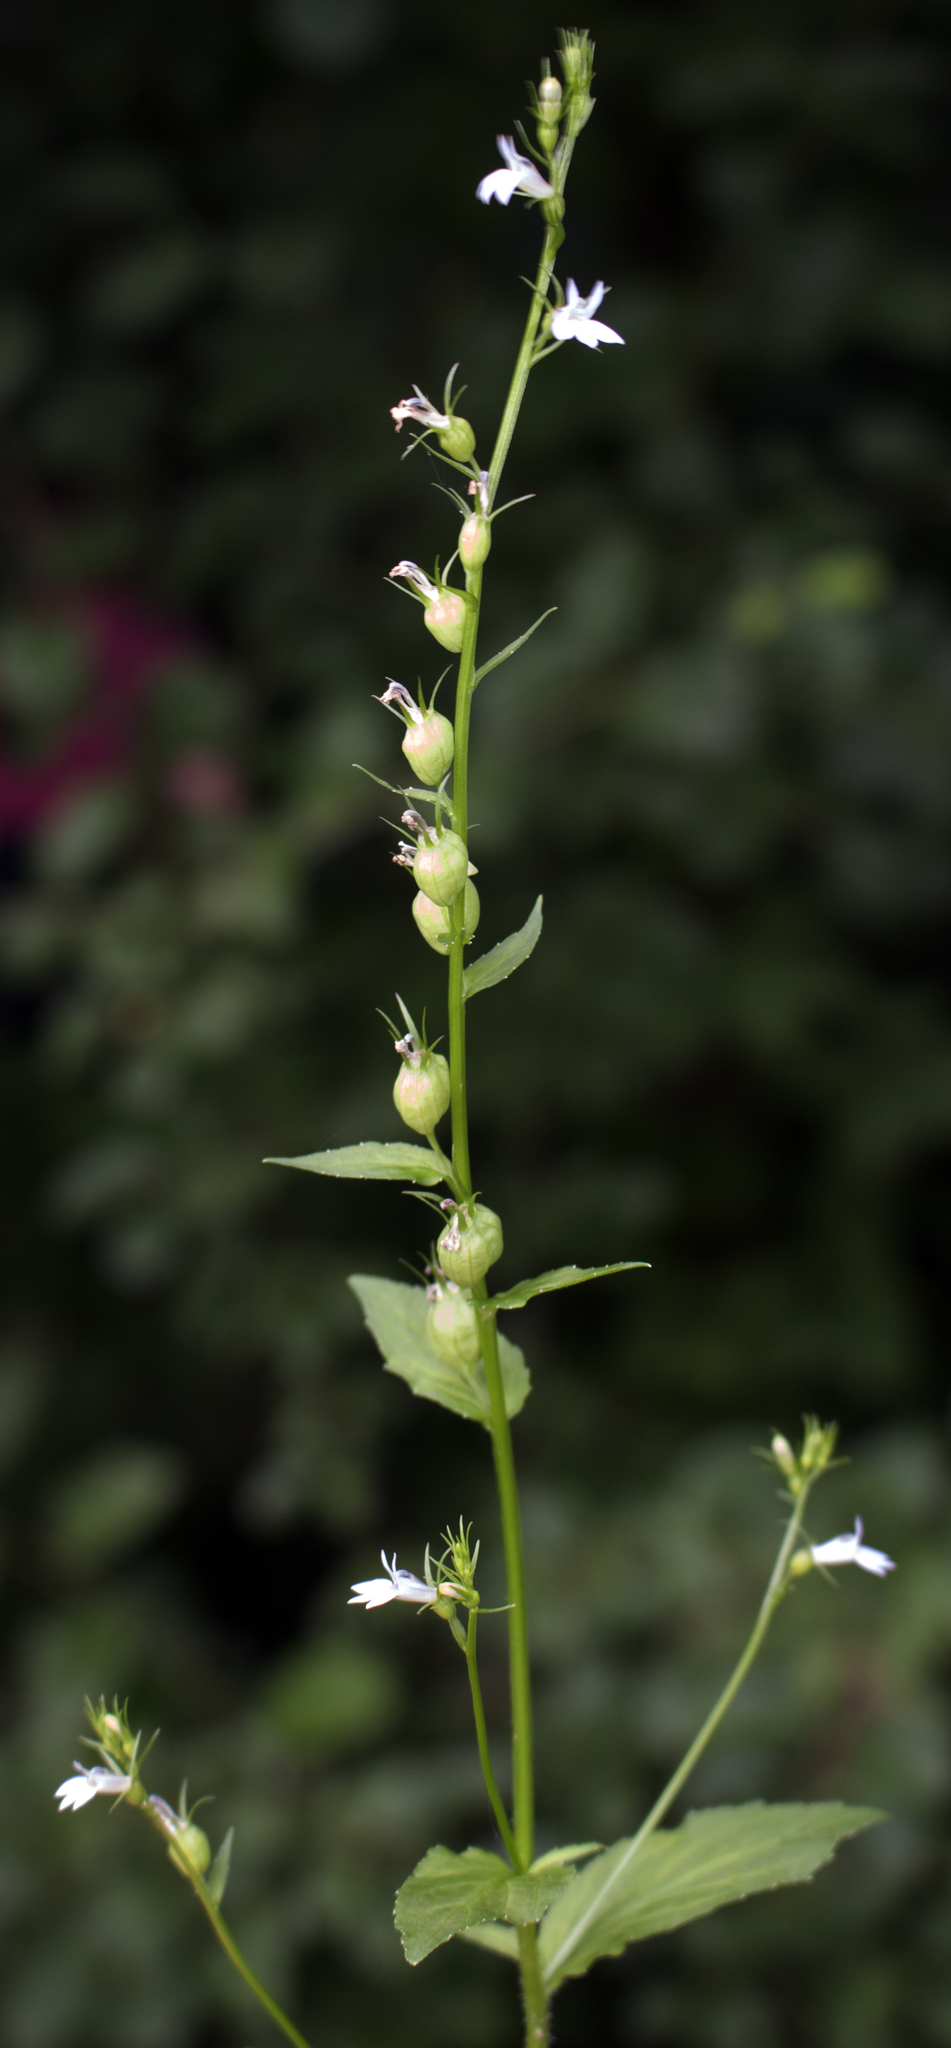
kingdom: Plantae
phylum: Tracheophyta
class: Magnoliopsida
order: Asterales
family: Campanulaceae
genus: Lobelia
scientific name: Lobelia inflata
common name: Indian tobacco
